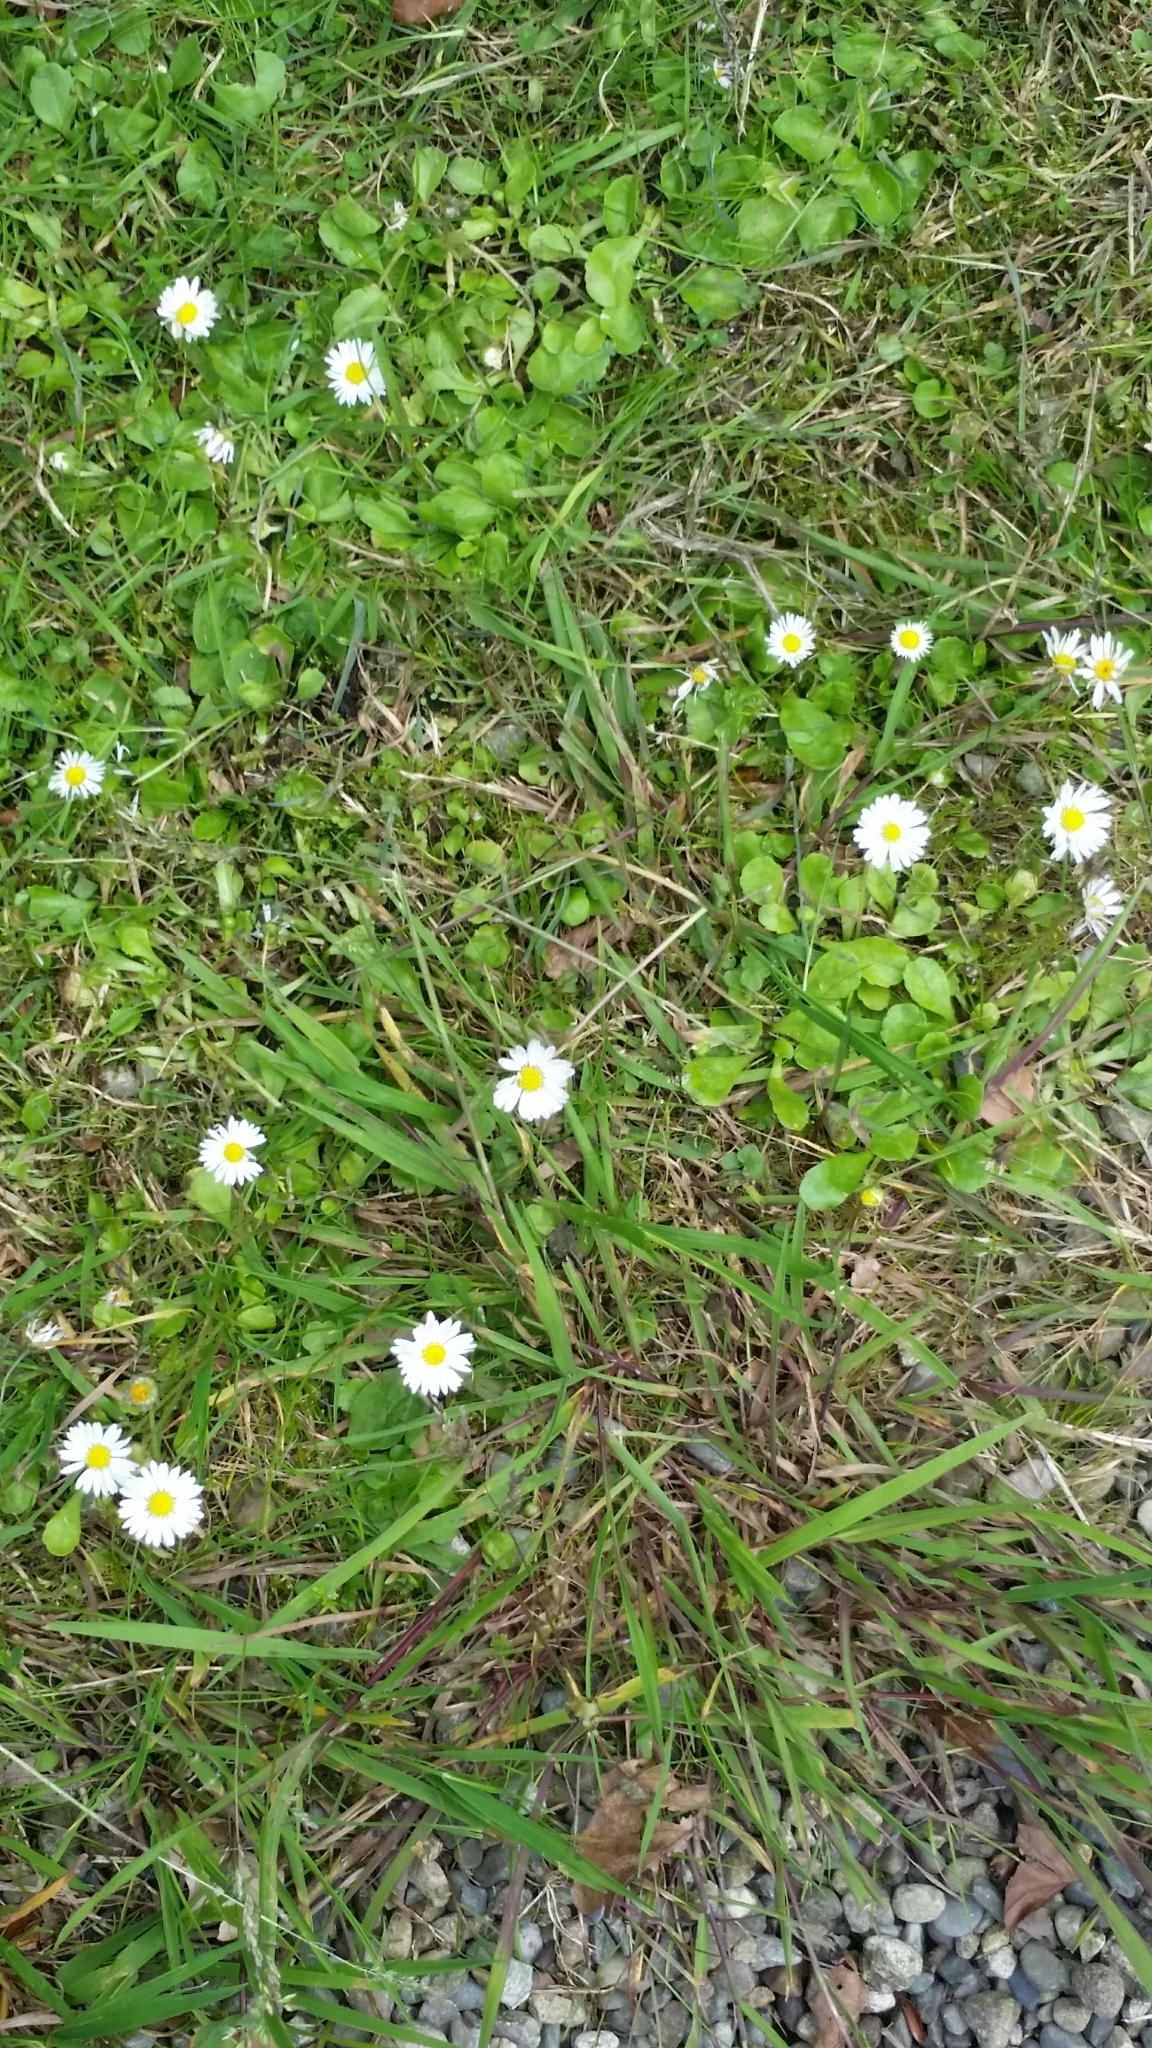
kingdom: Plantae
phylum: Tracheophyta
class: Magnoliopsida
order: Asterales
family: Asteraceae
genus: Bellis
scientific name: Bellis perennis
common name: Lawndaisy
